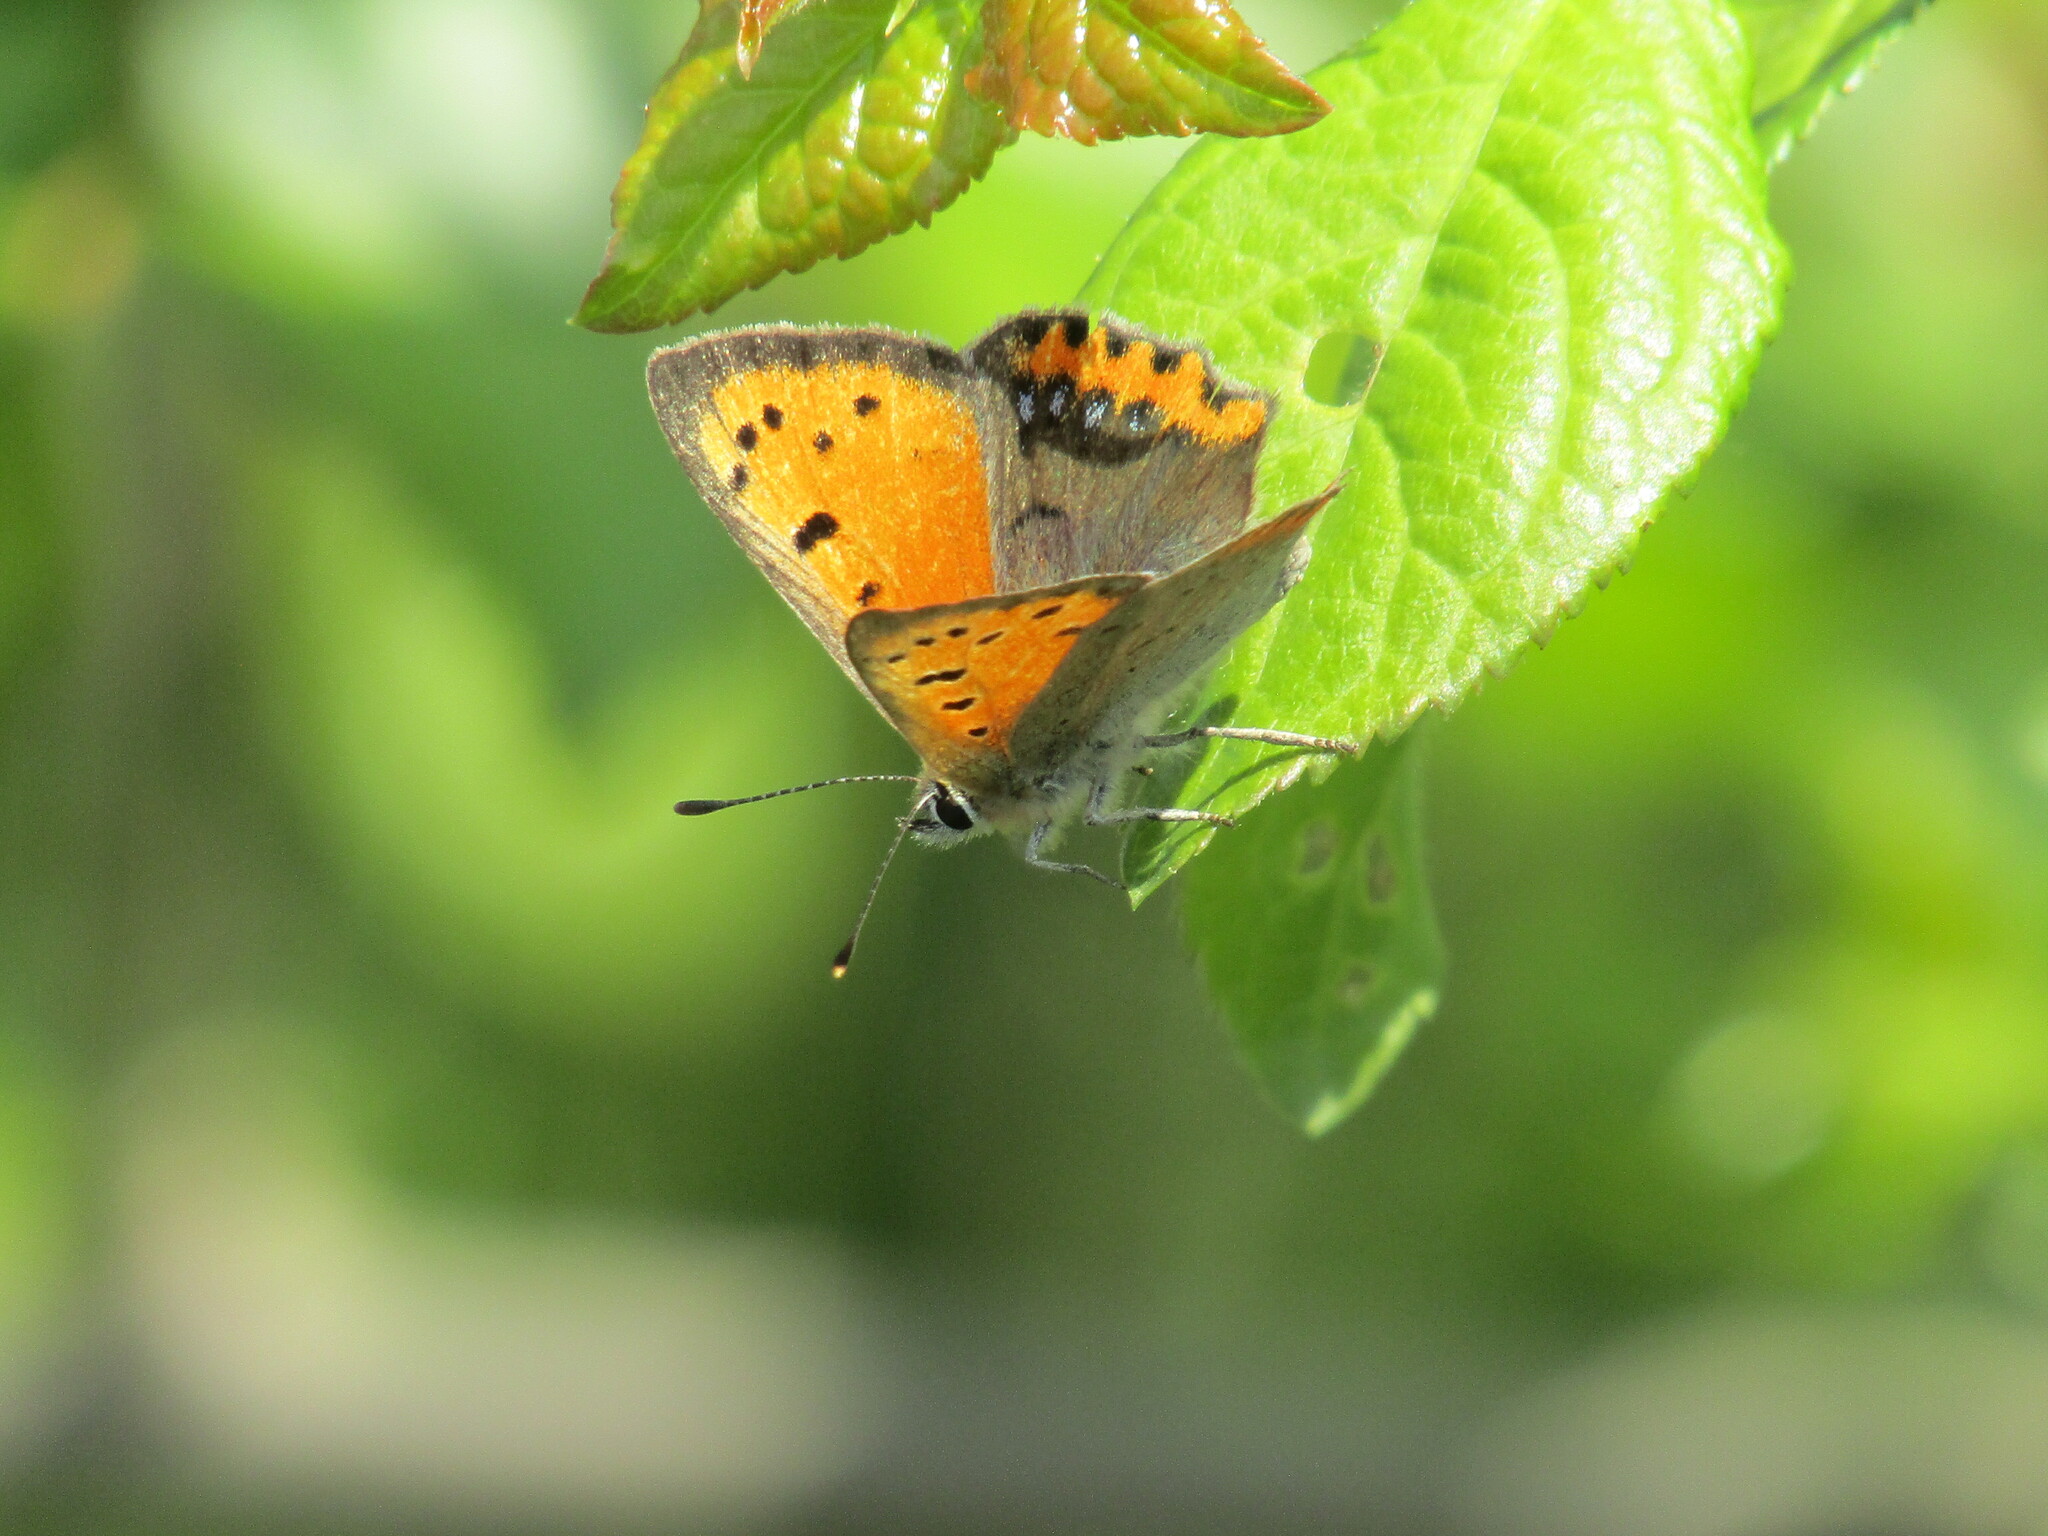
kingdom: Animalia
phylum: Arthropoda
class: Insecta
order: Lepidoptera
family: Lycaenidae
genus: Lycaena
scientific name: Lycaena phlaeas
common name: Small copper
